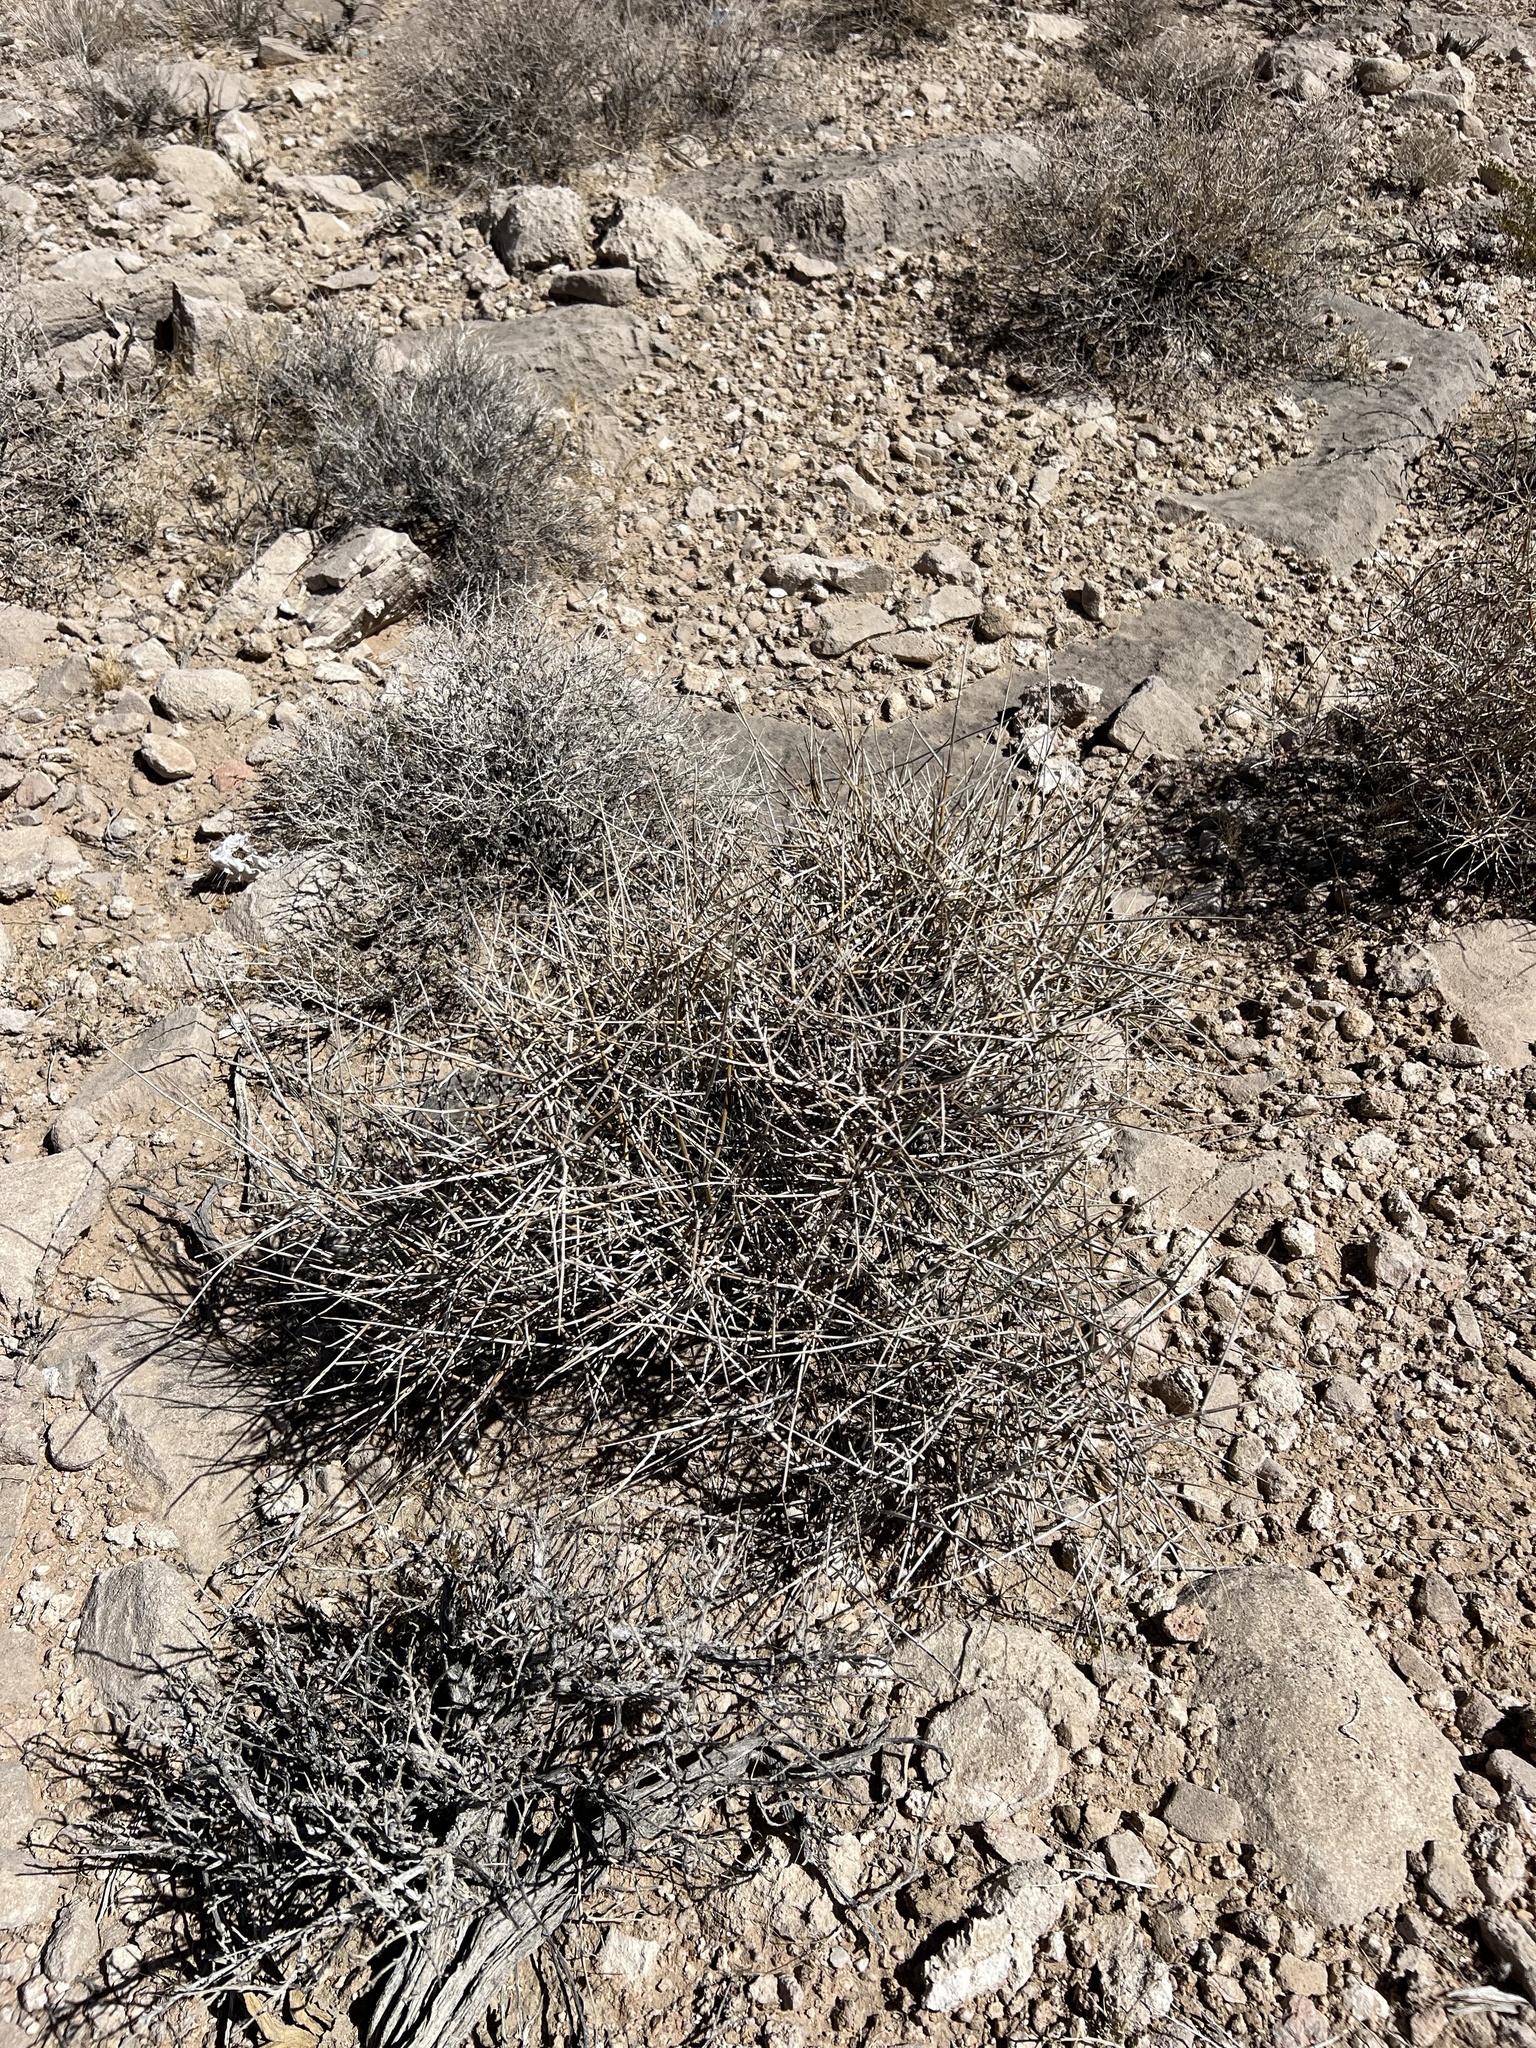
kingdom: Plantae
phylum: Tracheophyta
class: Gnetopsida
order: Ephedrales
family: Ephedraceae
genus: Ephedra
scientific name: Ephedra nevadensis
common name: Gray ephedra
